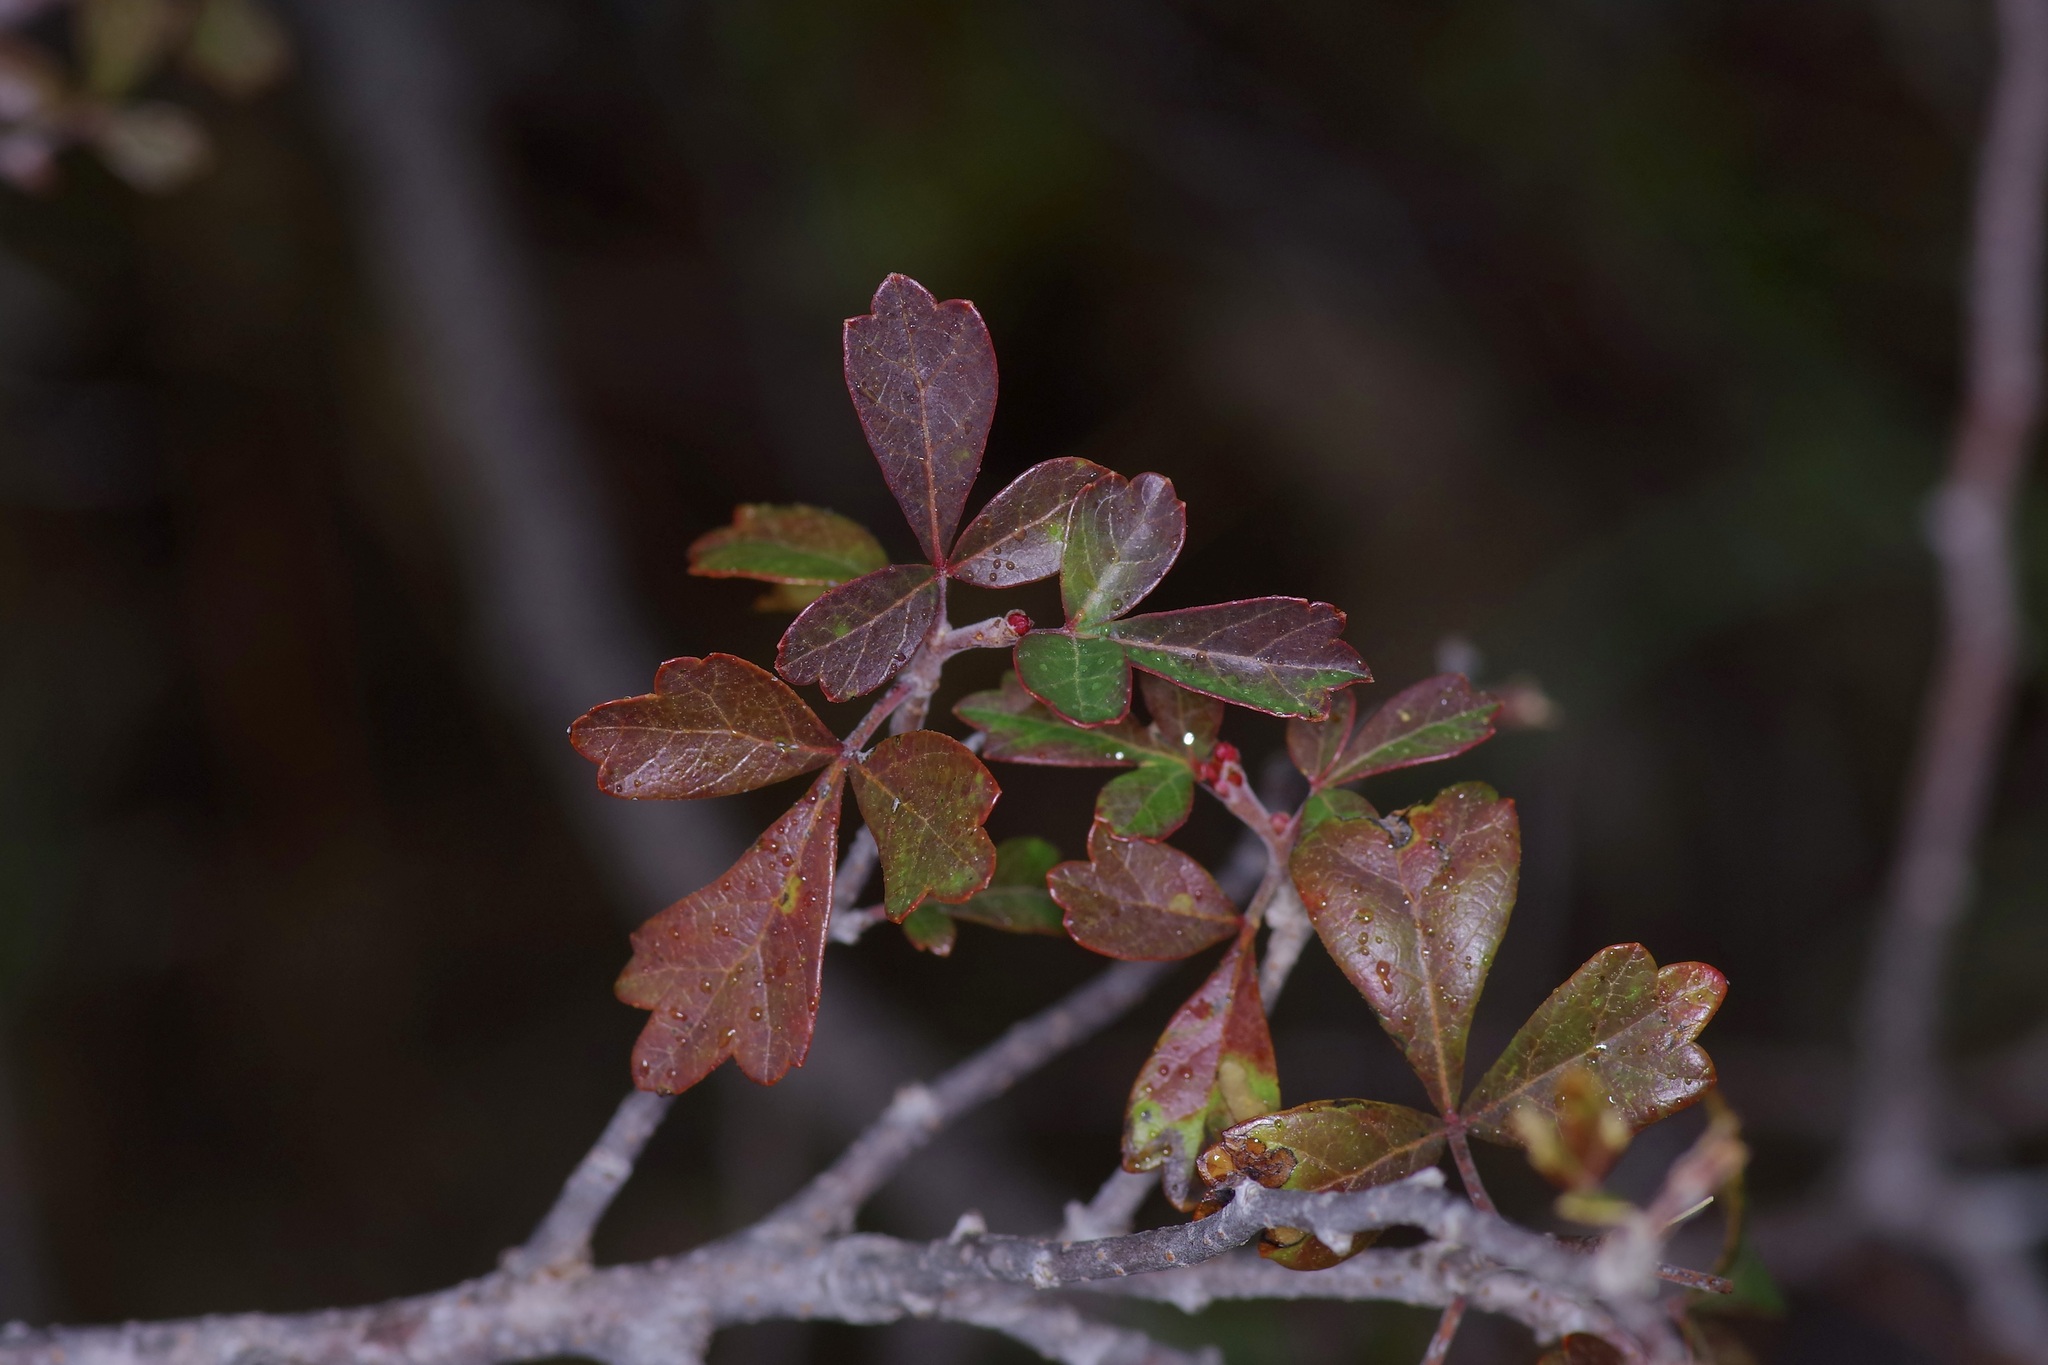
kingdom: Plantae
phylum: Tracheophyta
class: Magnoliopsida
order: Sapindales
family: Anacardiaceae
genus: Rhus
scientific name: Rhus aromatica
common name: Aromatic sumac
